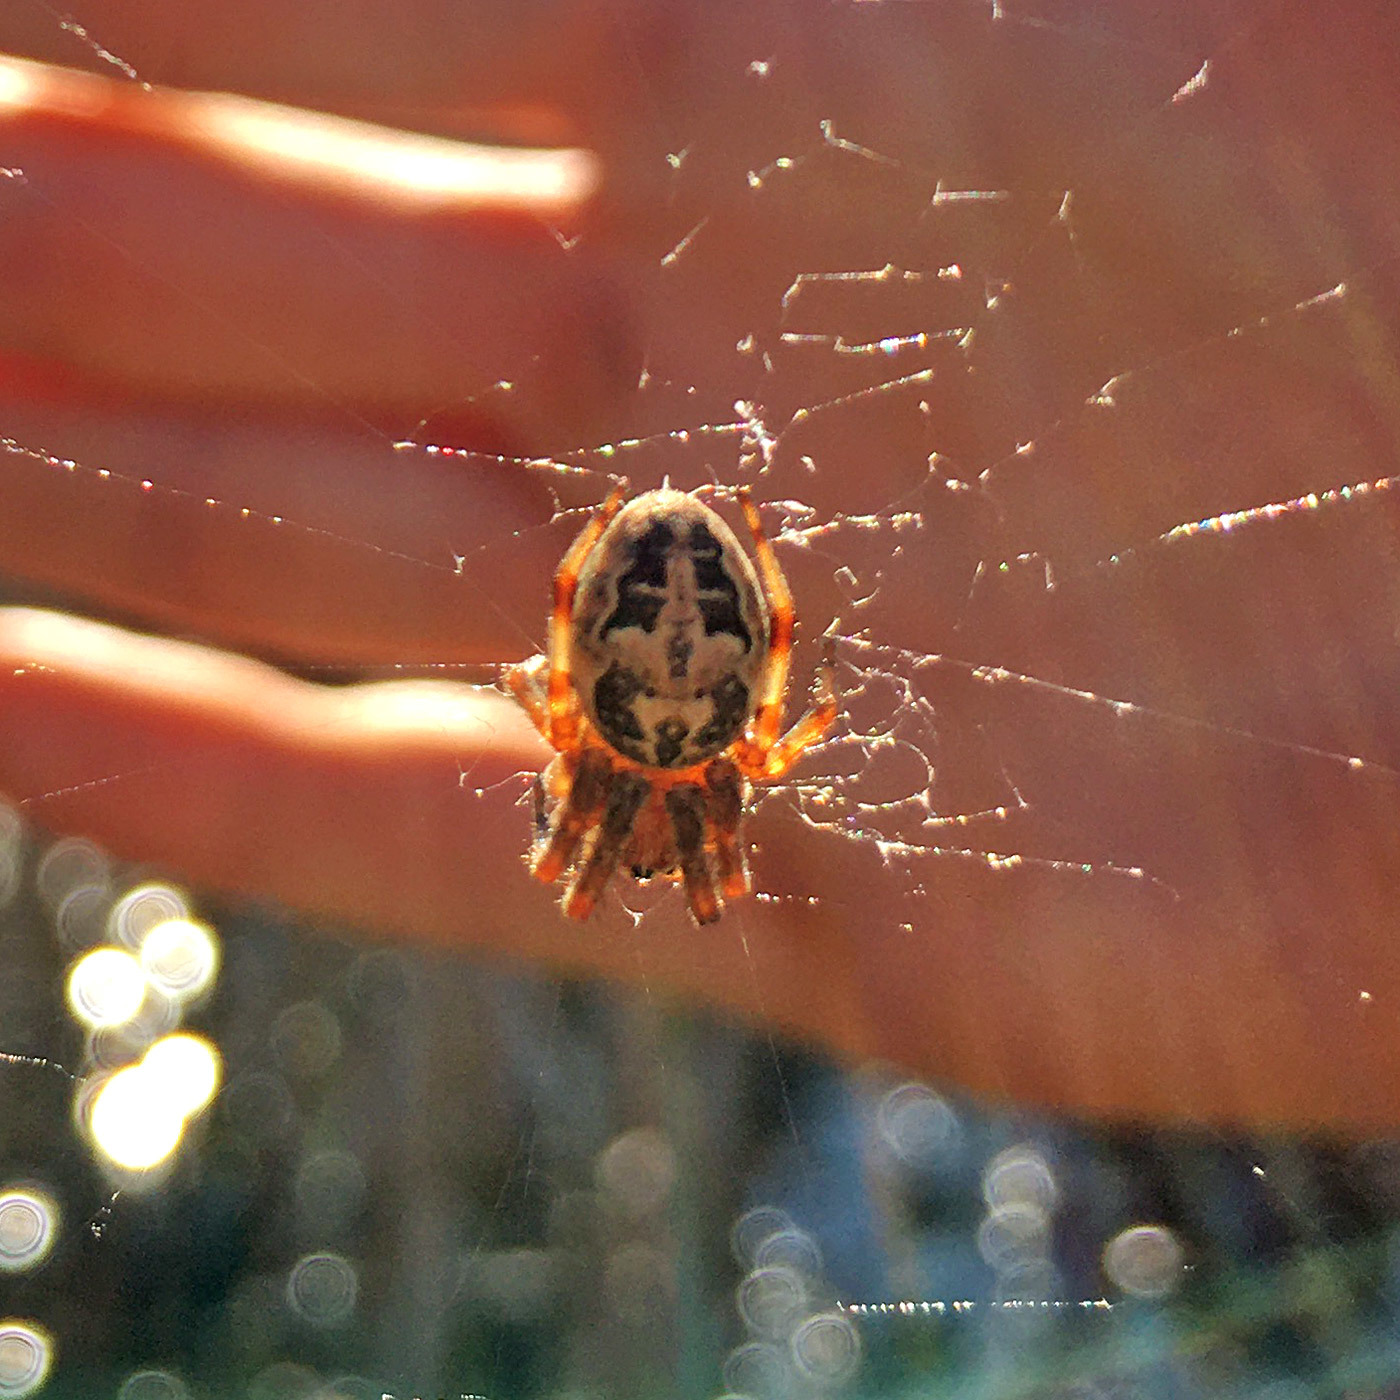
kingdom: Animalia
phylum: Arthropoda
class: Arachnida
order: Araneae
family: Araneidae
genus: Larinioides
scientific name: Larinioides cornutus
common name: Furrow orbweaver
